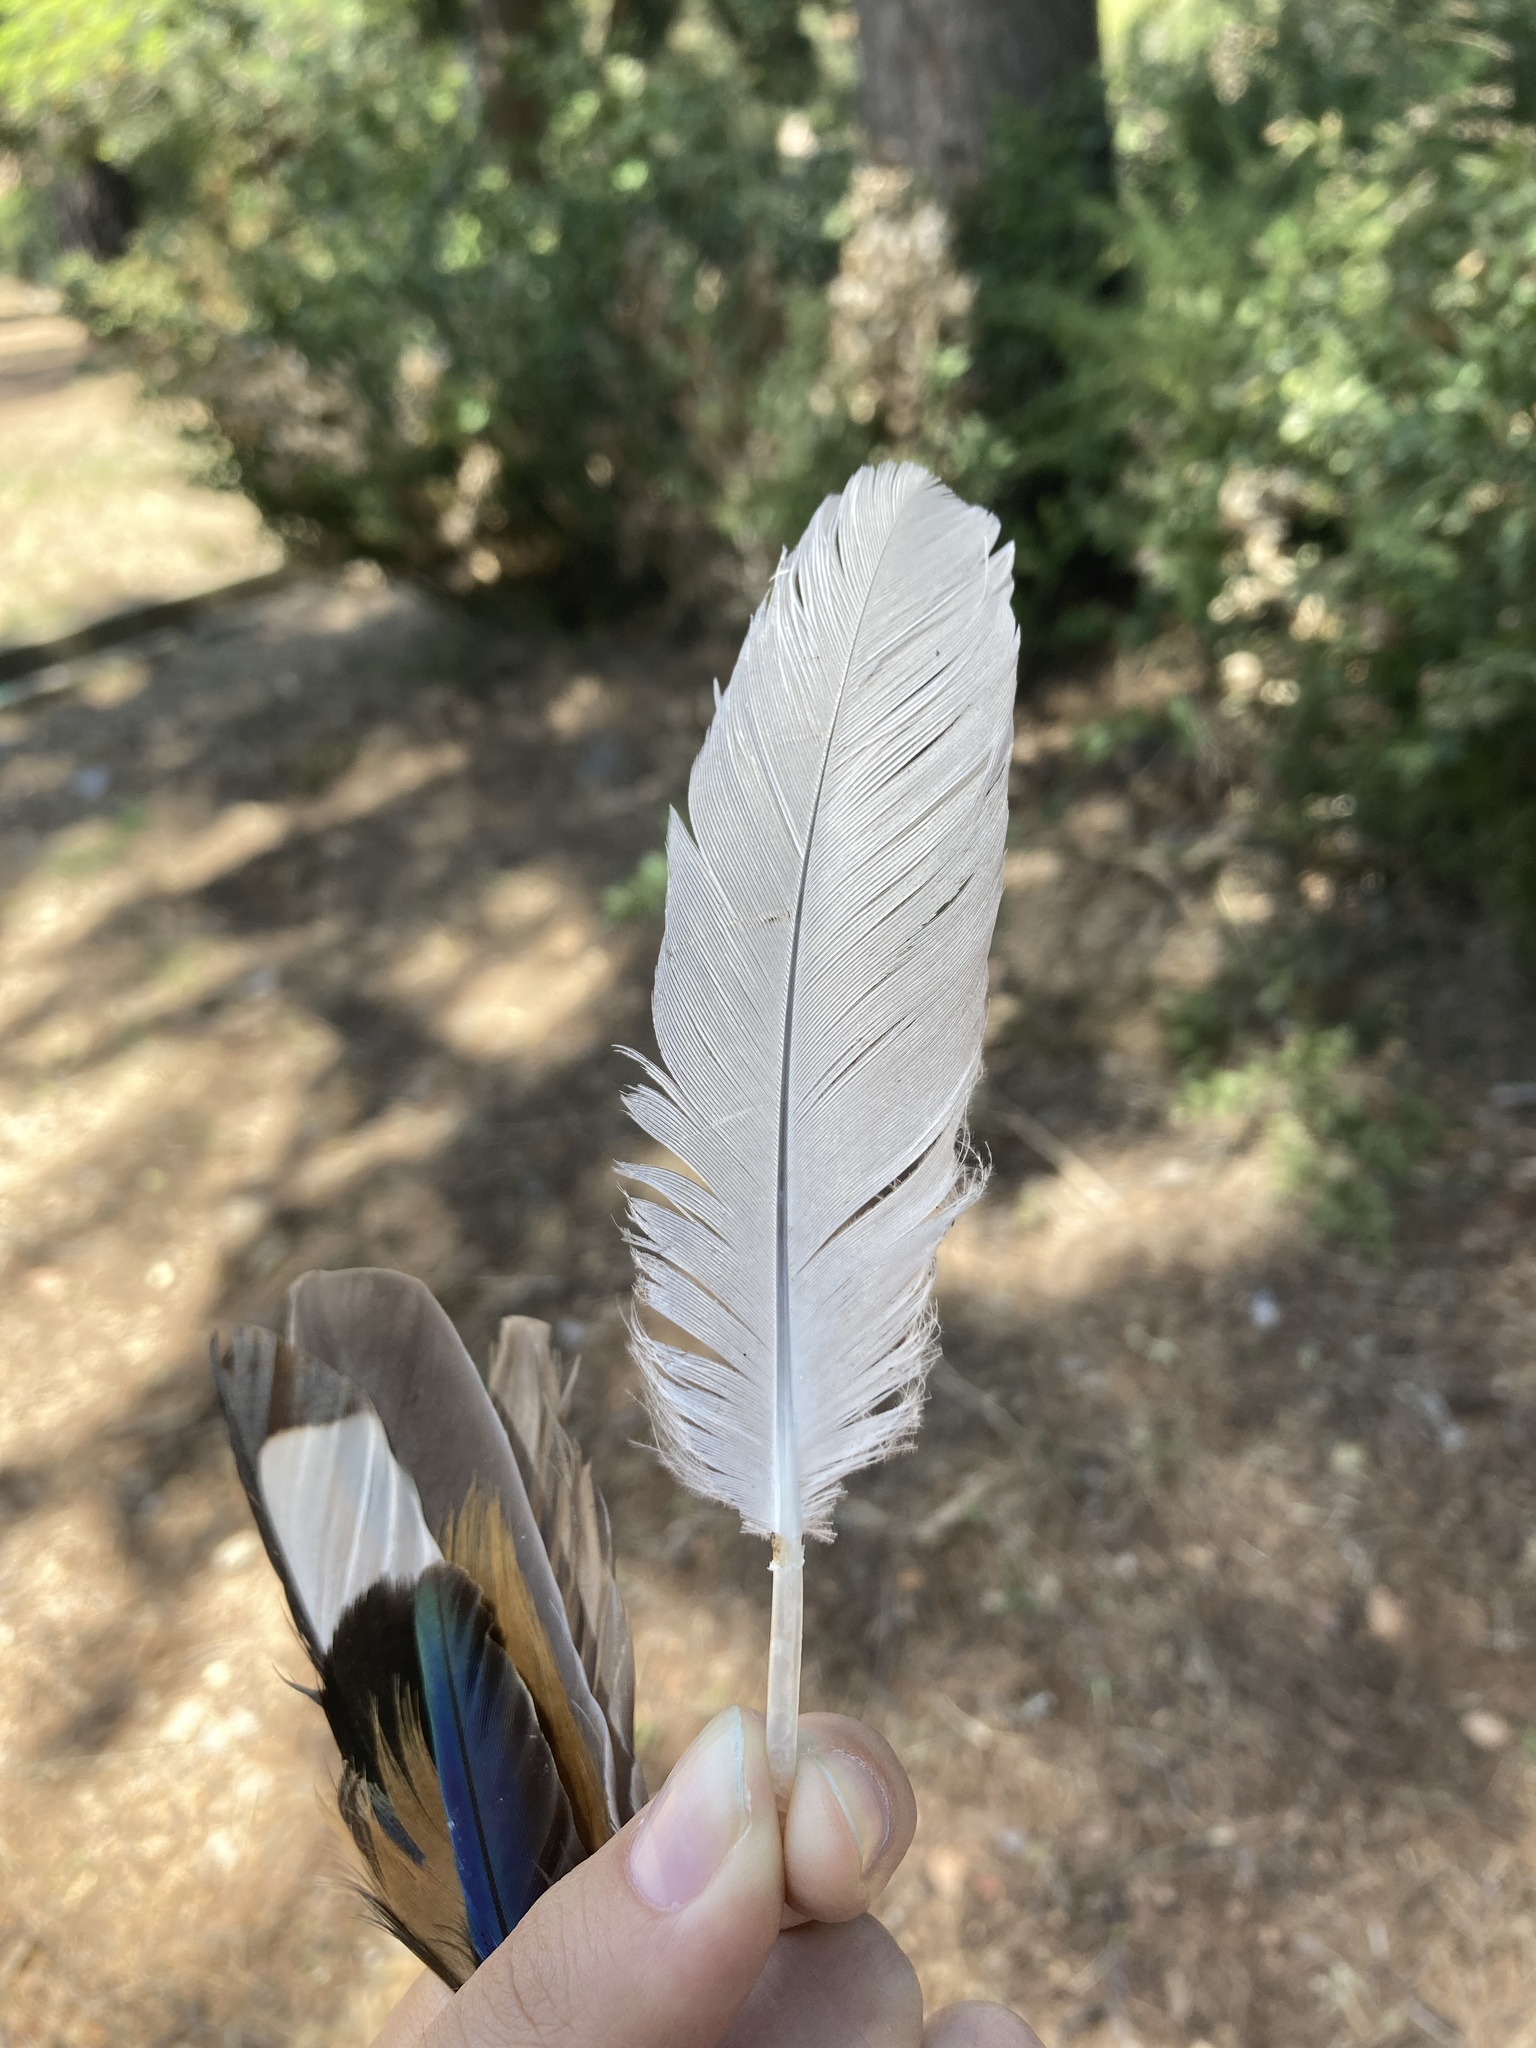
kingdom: Animalia
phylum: Chordata
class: Aves
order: Charadriiformes
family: Laridae
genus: Larus
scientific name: Larus michahellis
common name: Yellow-legged gull
